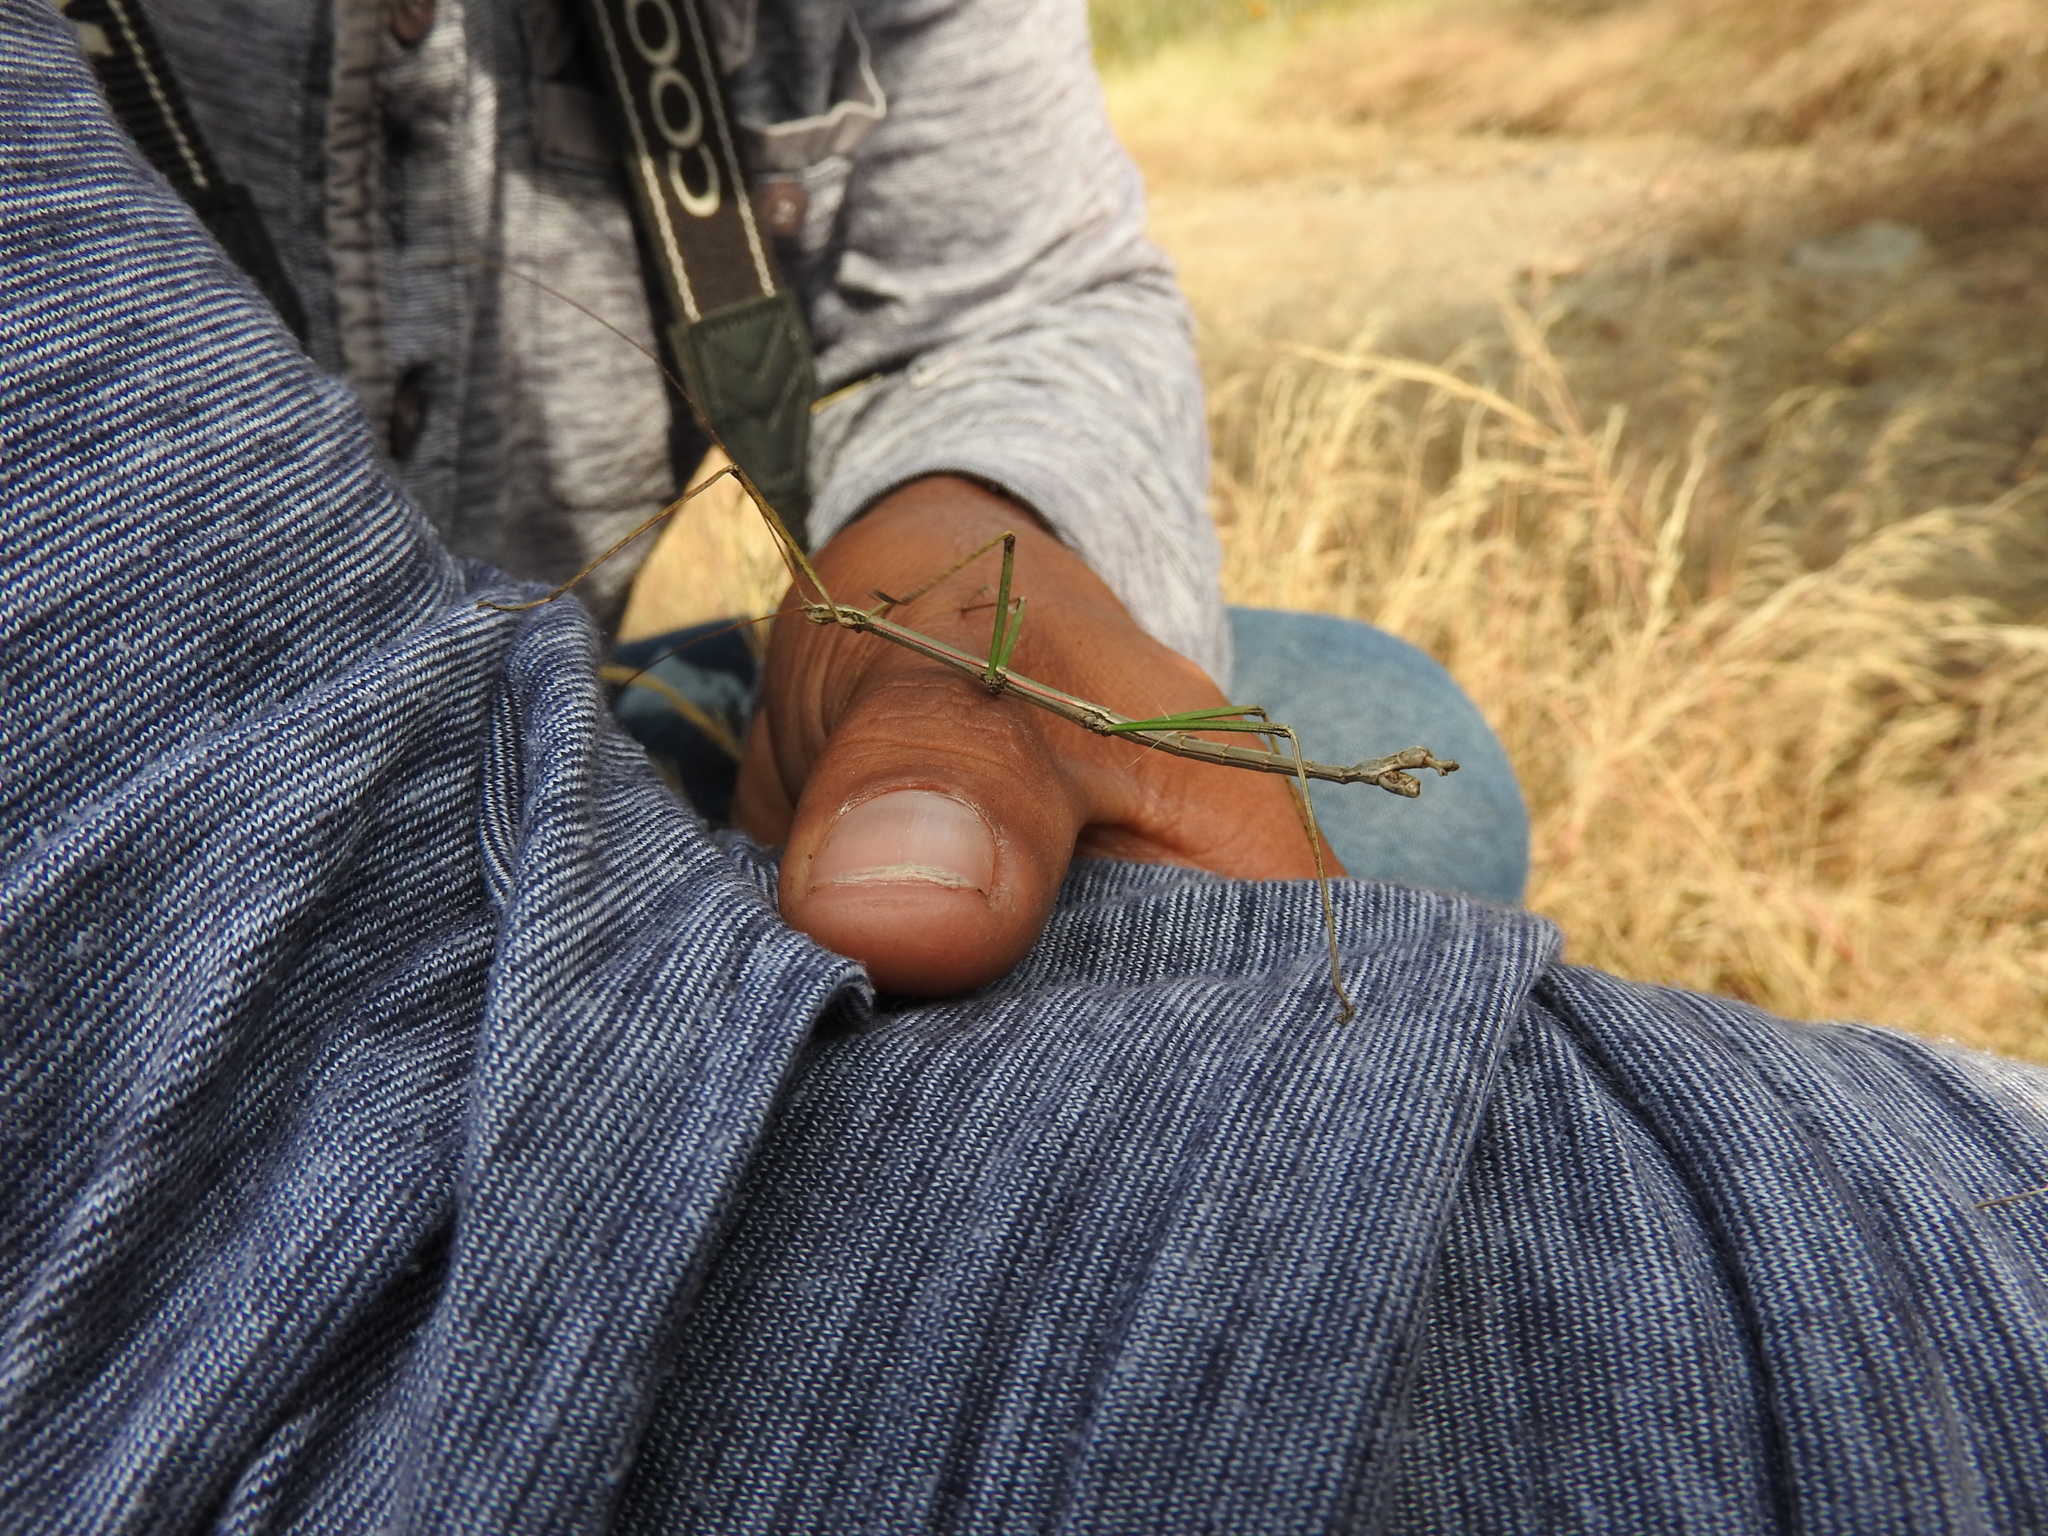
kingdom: Animalia
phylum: Arthropoda
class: Insecta
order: Phasmida
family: Diapheromeridae
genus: Pseudosermyle
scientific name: Pseudosermyle tridens
